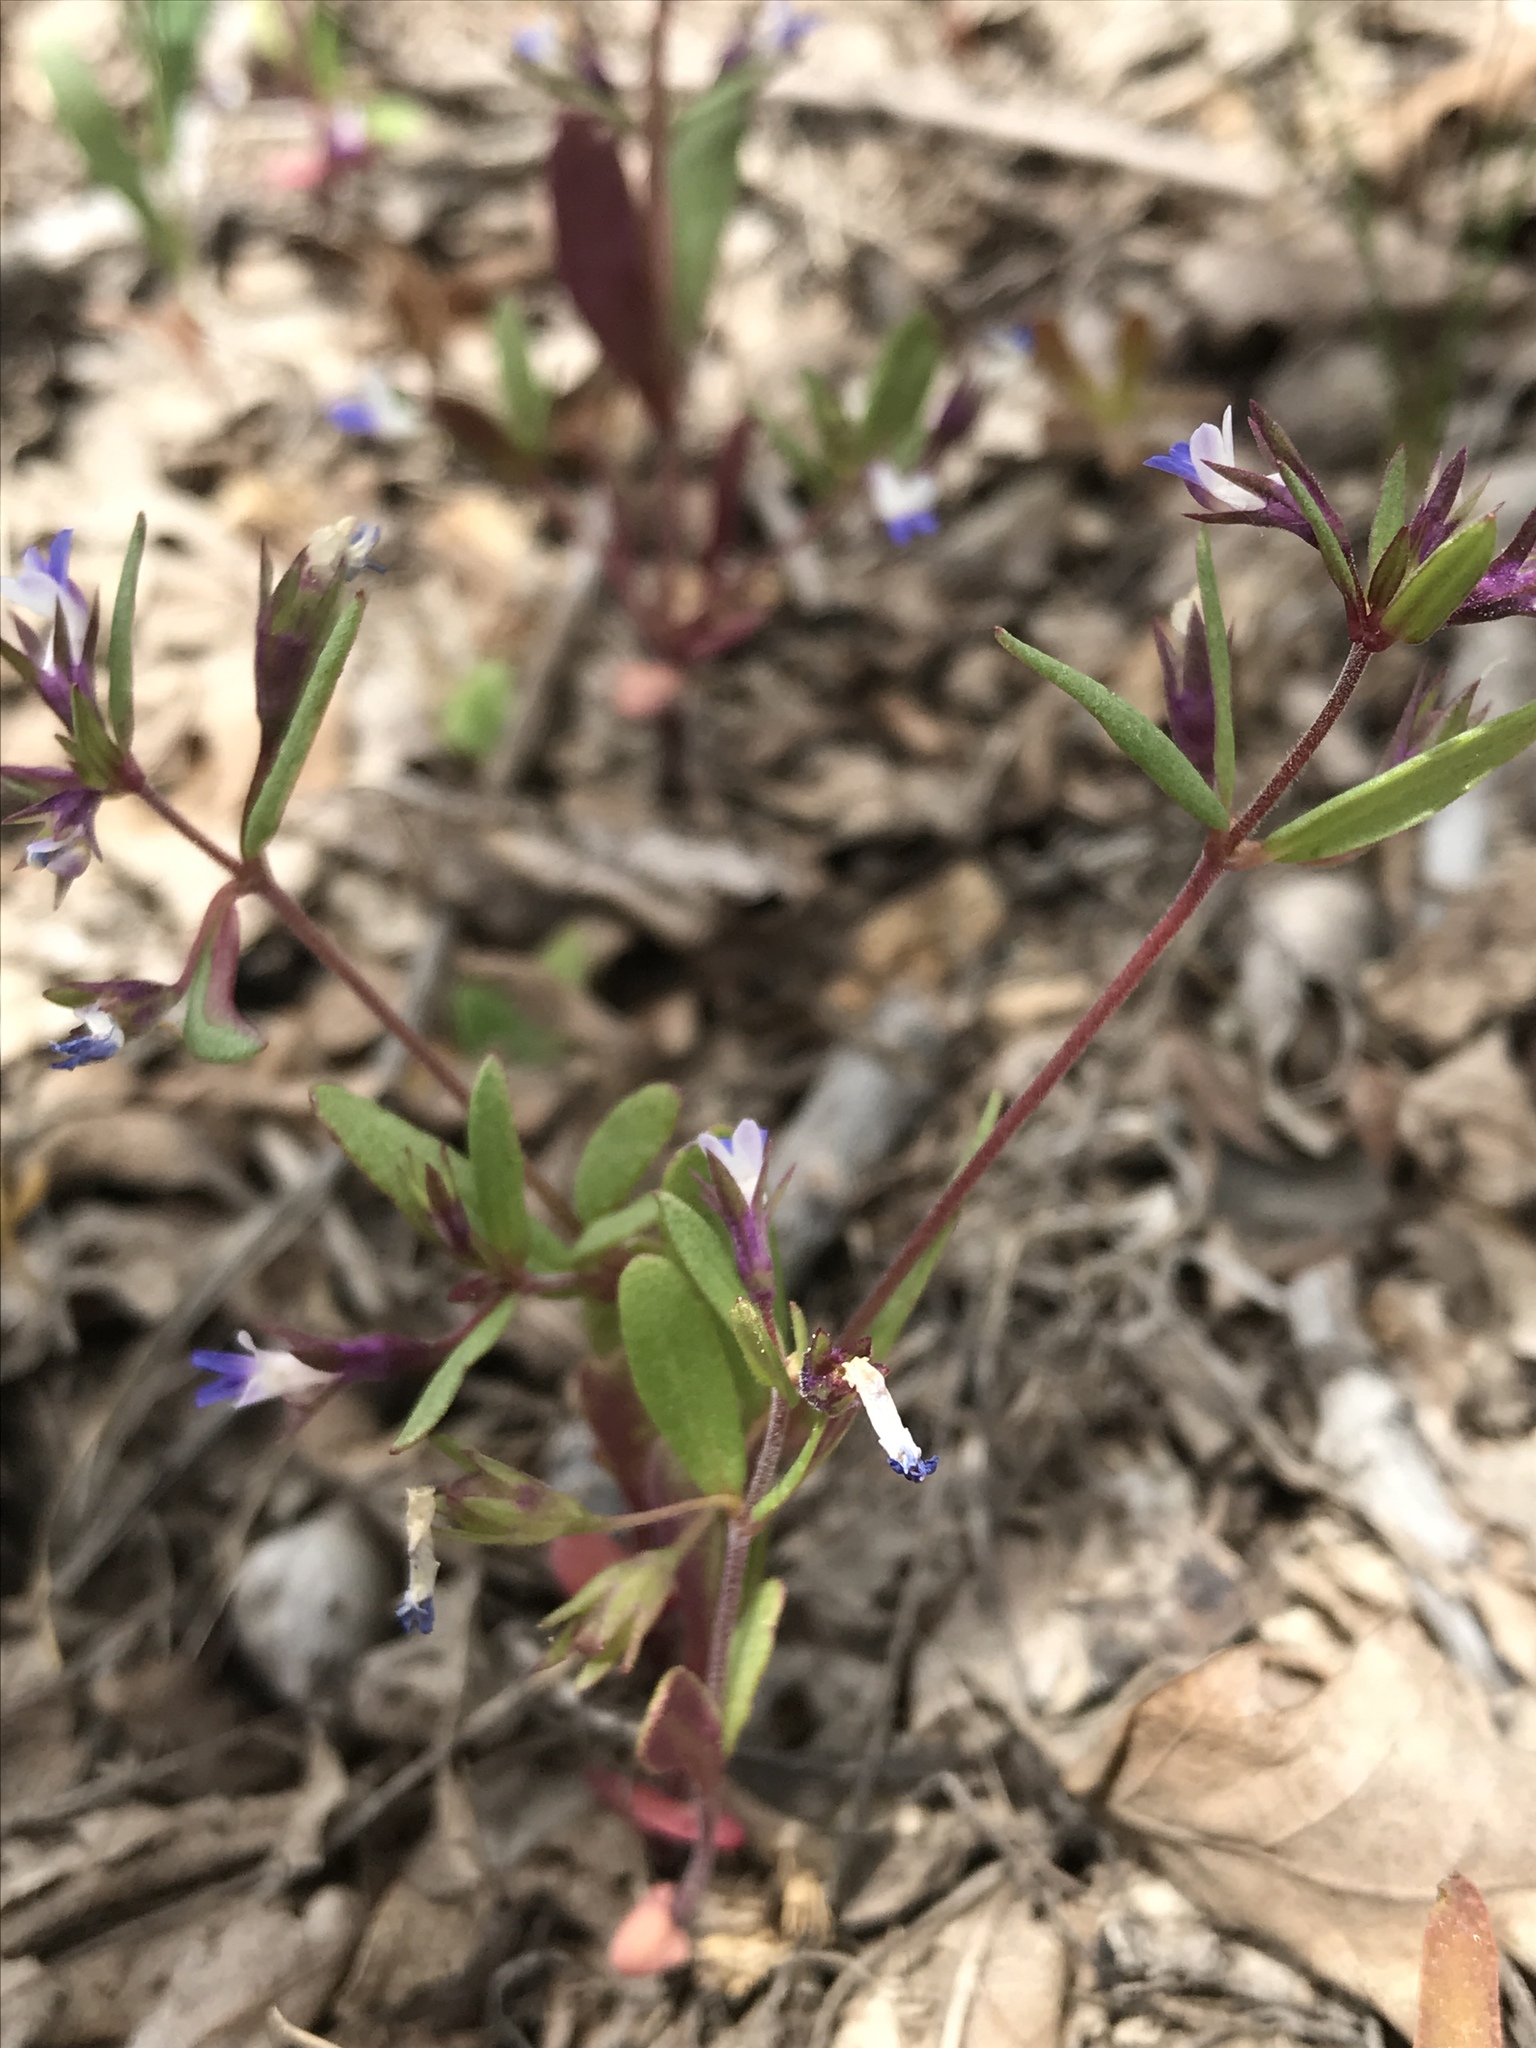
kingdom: Plantae
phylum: Tracheophyta
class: Magnoliopsida
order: Lamiales
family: Plantaginaceae
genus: Collinsia
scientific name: Collinsia parviflora
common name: Blue-lips
